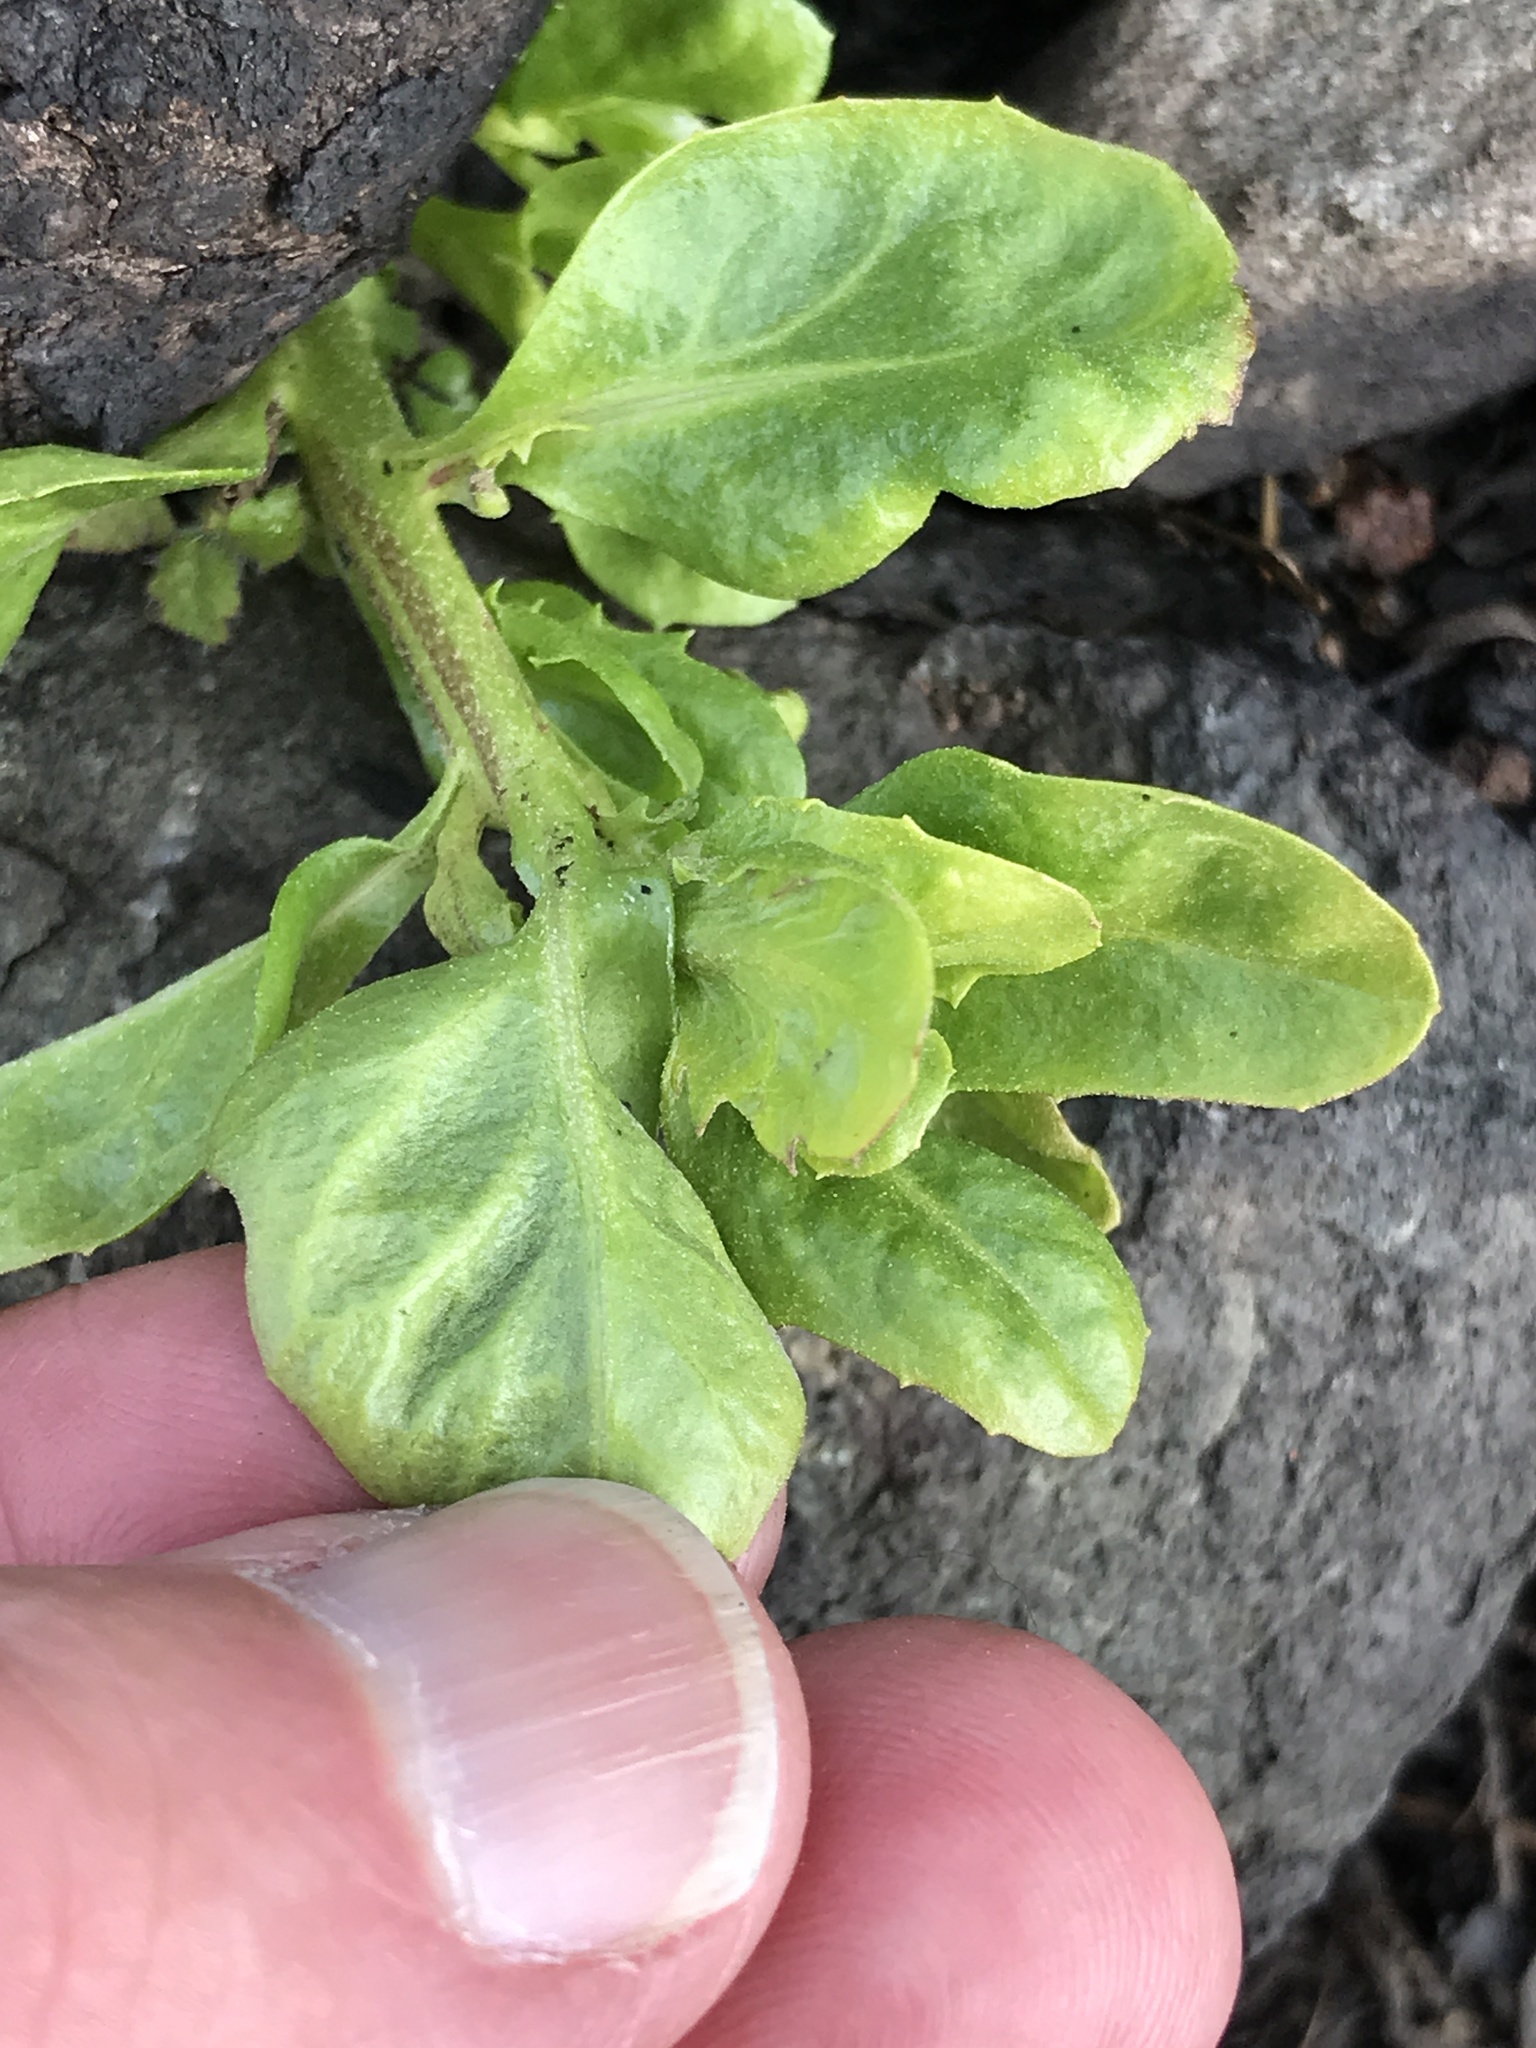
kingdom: Plantae
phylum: Tracheophyta
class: Magnoliopsida
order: Asterales
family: Asteraceae
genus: Baccharis
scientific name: Baccharis pilularis
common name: Coyotebrush
